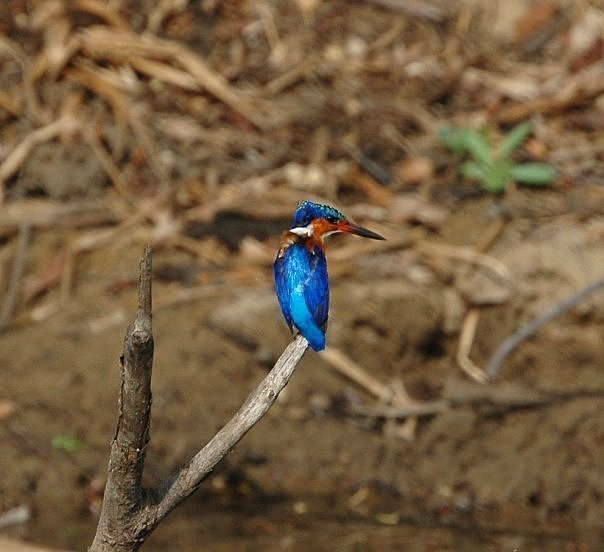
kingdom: Animalia
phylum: Chordata
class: Aves
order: Coraciiformes
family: Alcedinidae
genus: Corythornis
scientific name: Corythornis vintsioides
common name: Malagasy kingfisher
